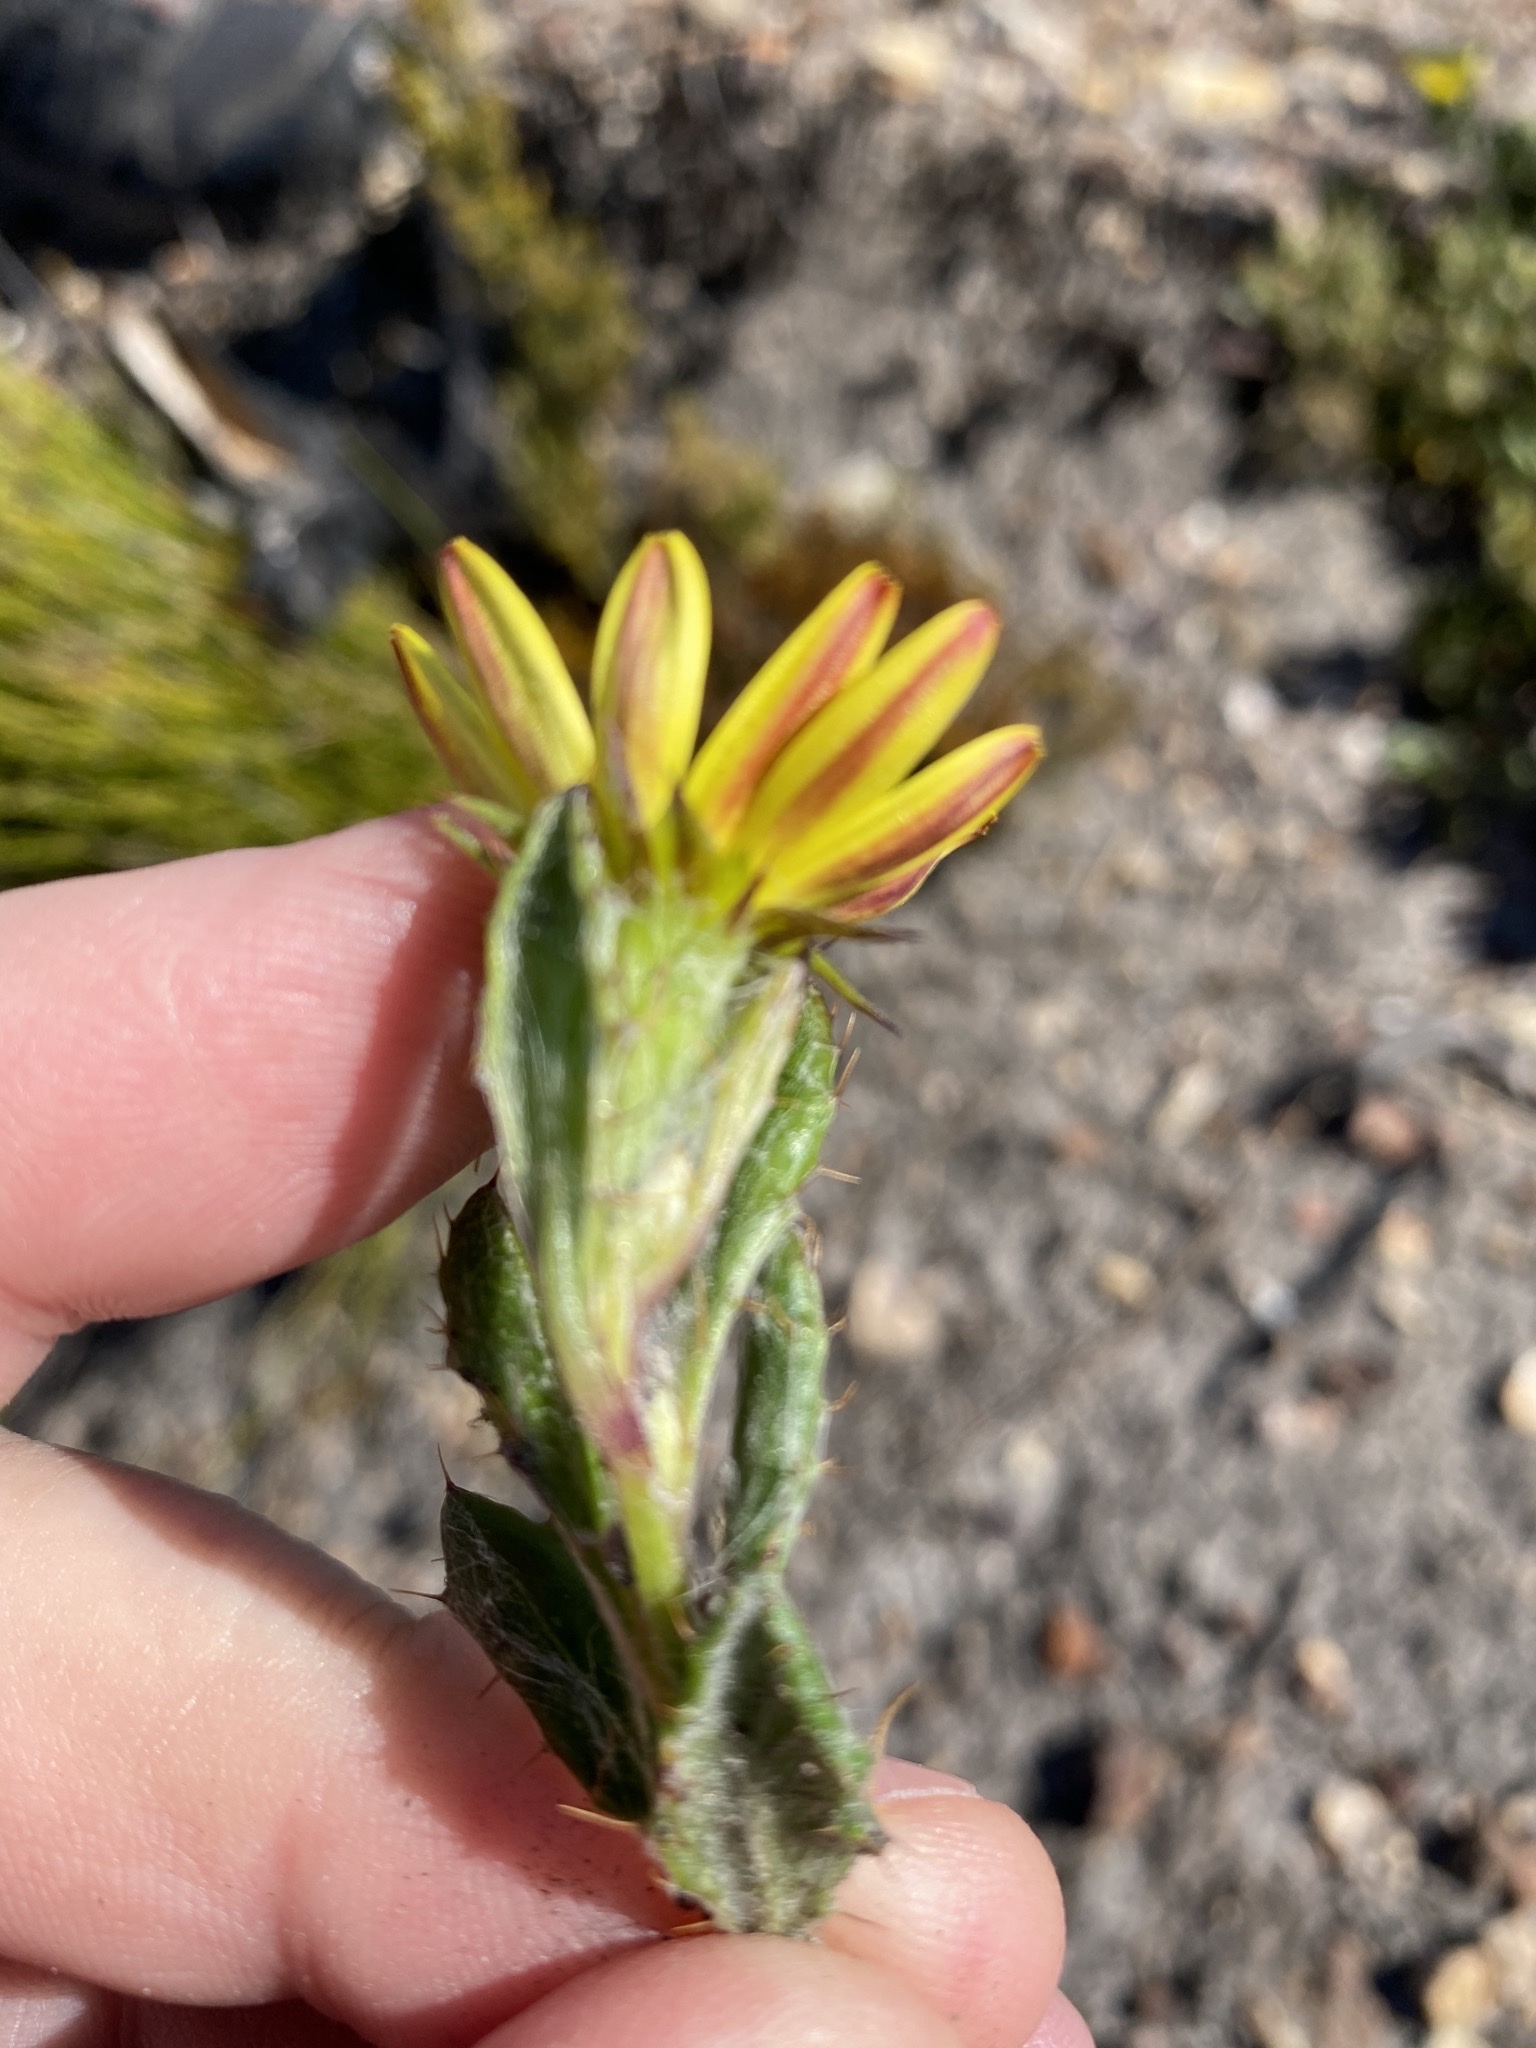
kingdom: Plantae
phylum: Tracheophyta
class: Magnoliopsida
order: Asterales
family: Asteraceae
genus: Cullumia
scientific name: Cullumia aculeata
